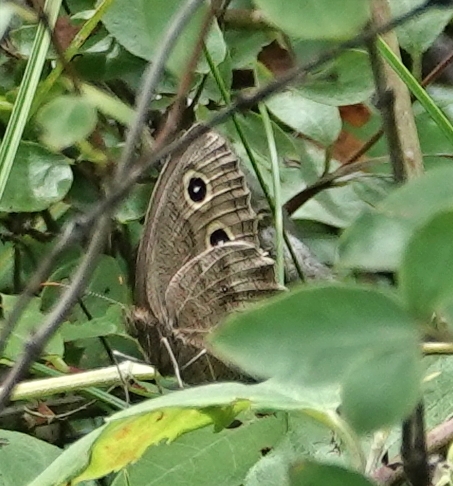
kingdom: Animalia
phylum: Arthropoda
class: Insecta
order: Lepidoptera
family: Nymphalidae
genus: Cercyonis
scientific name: Cercyonis pegala
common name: Common wood-nymph
